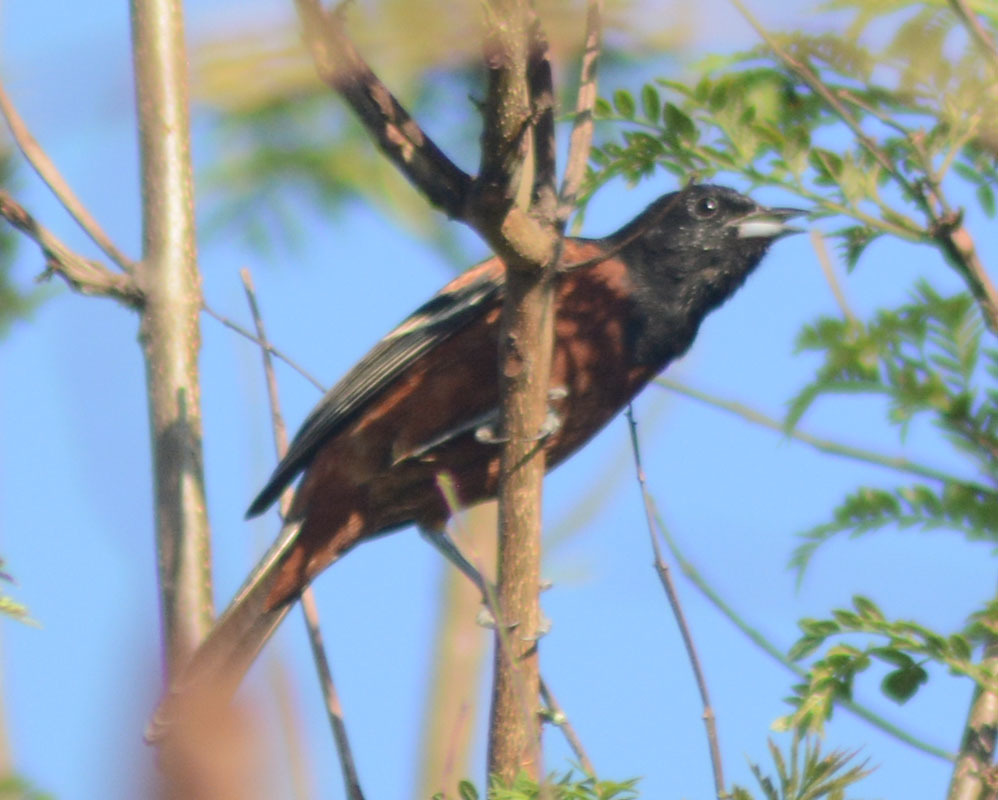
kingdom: Animalia
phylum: Chordata
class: Aves
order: Passeriformes
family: Icteridae
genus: Icterus
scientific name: Icterus spurius
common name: Orchard oriole
